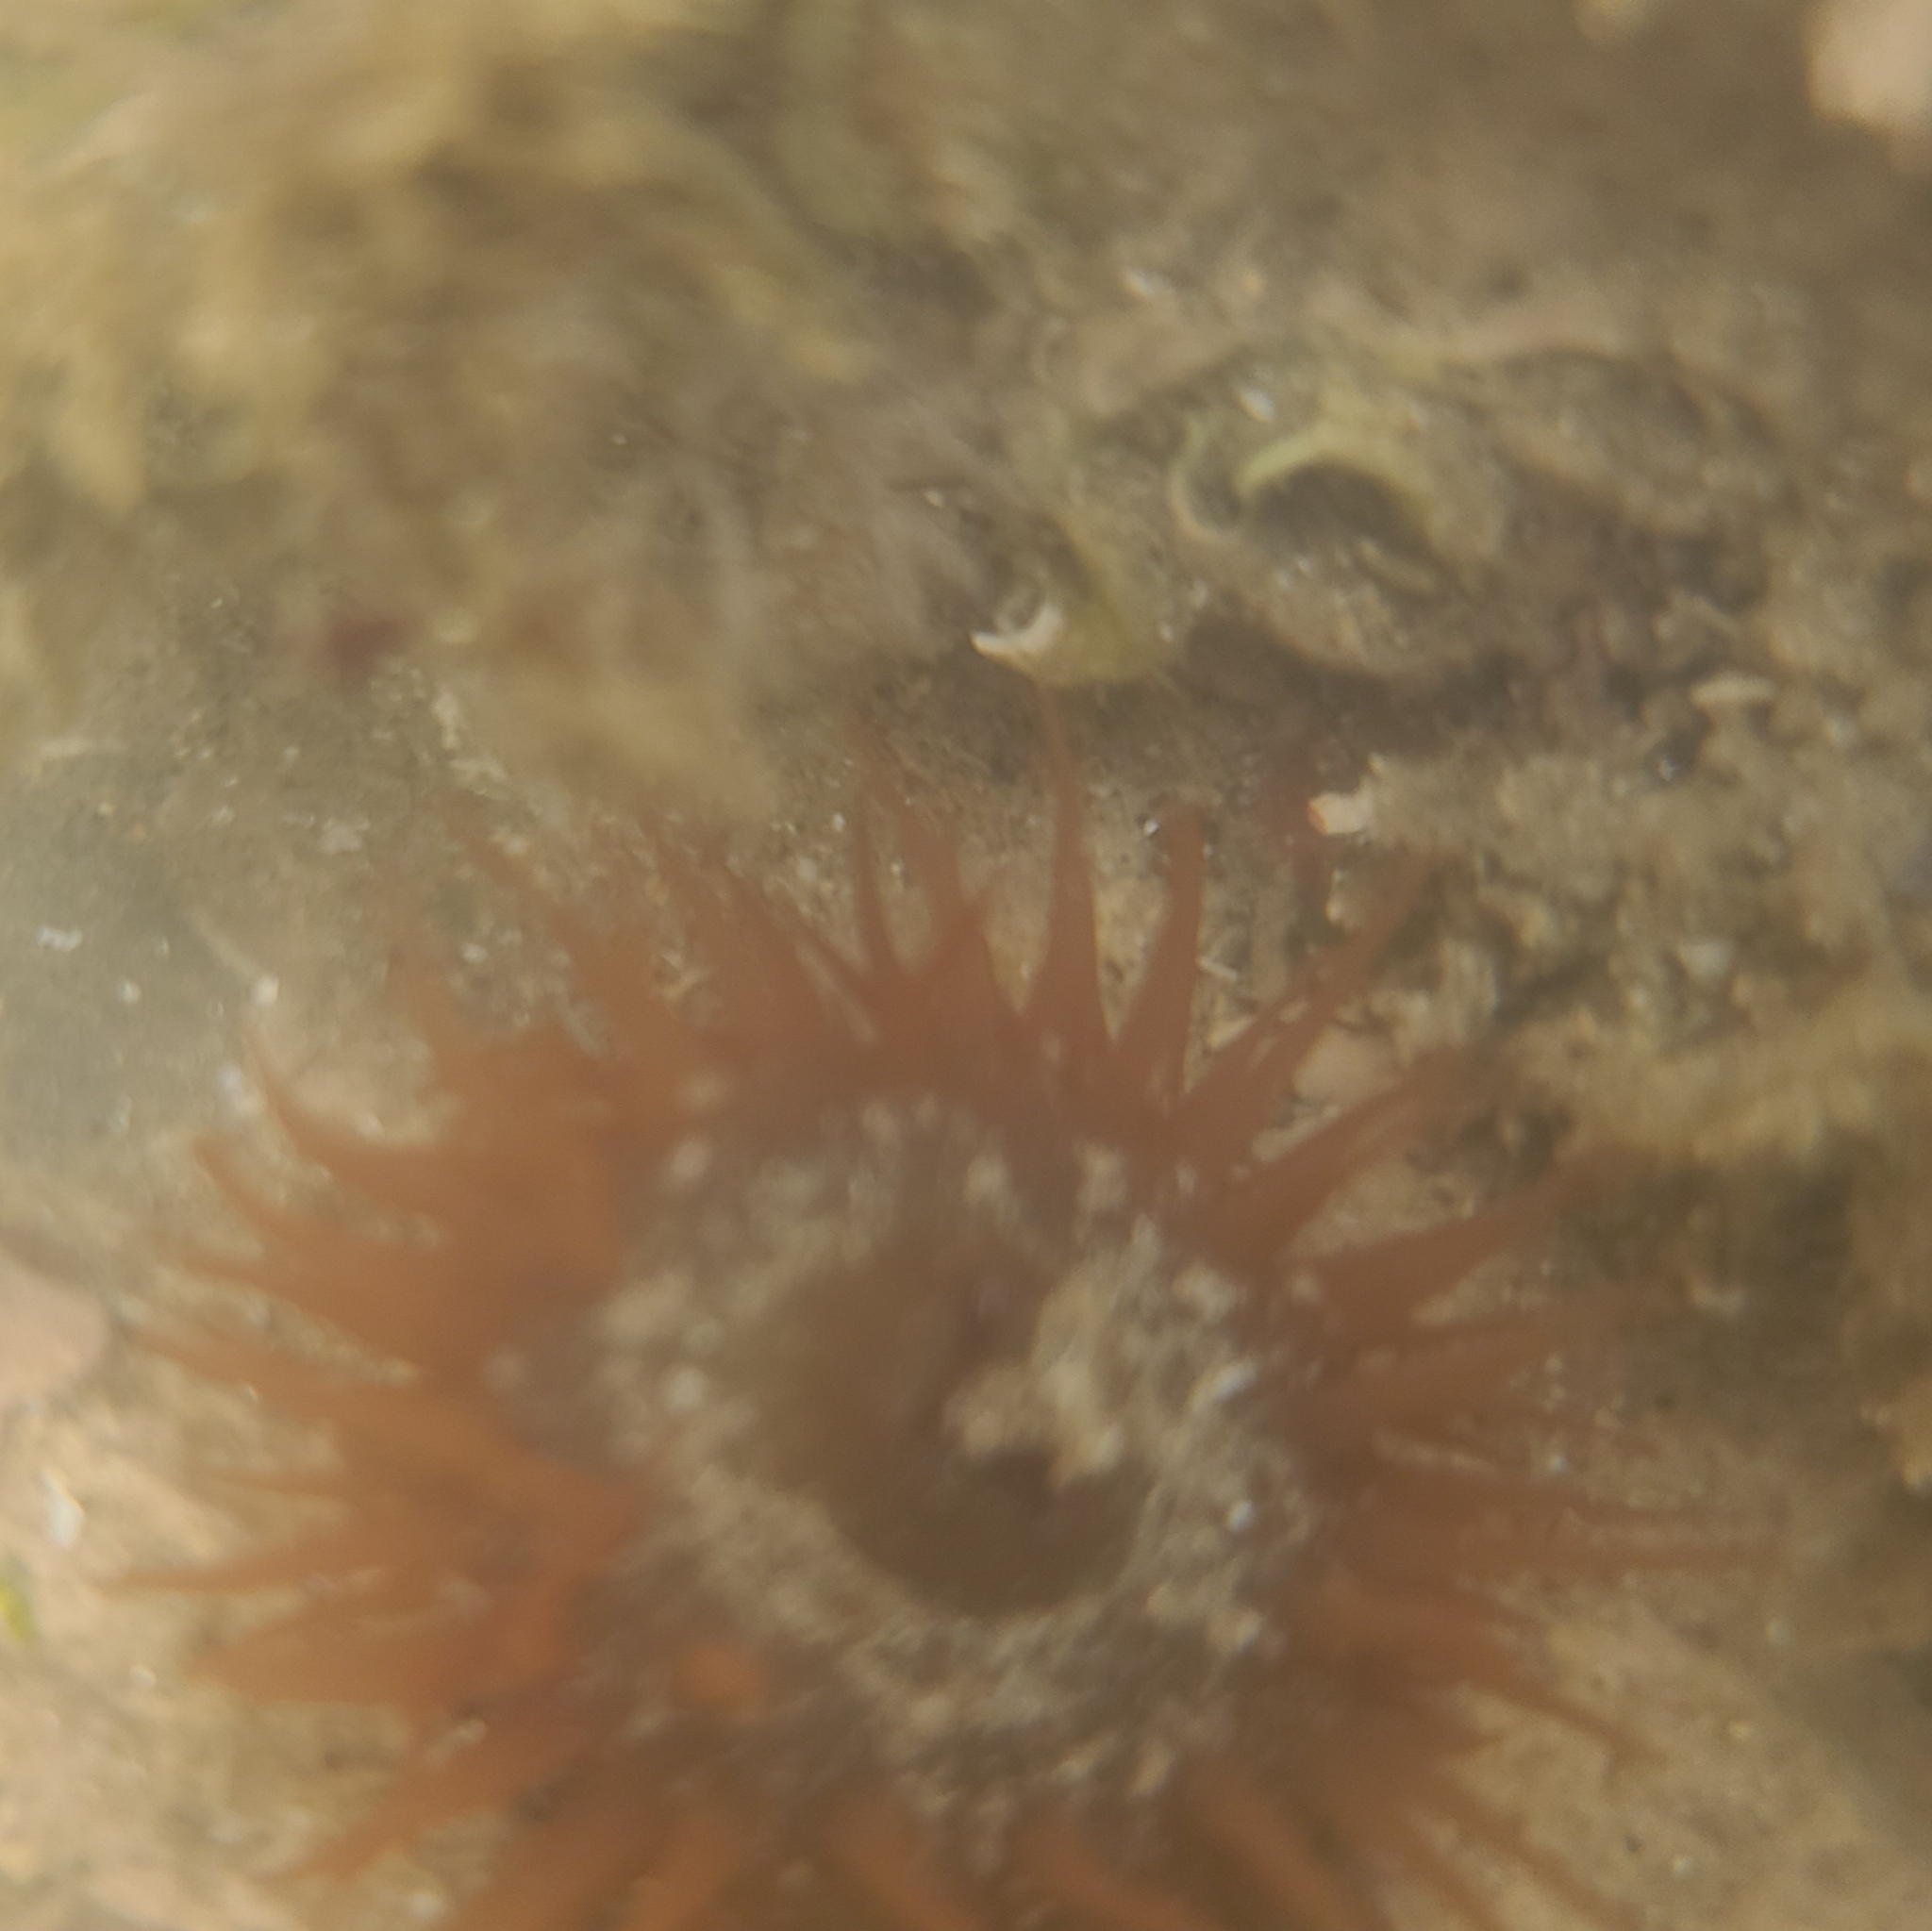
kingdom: Animalia
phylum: Cnidaria
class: Anthozoa
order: Actiniaria
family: Actiniidae
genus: Actinia
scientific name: Actinia equina
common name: Beadlet anemone
